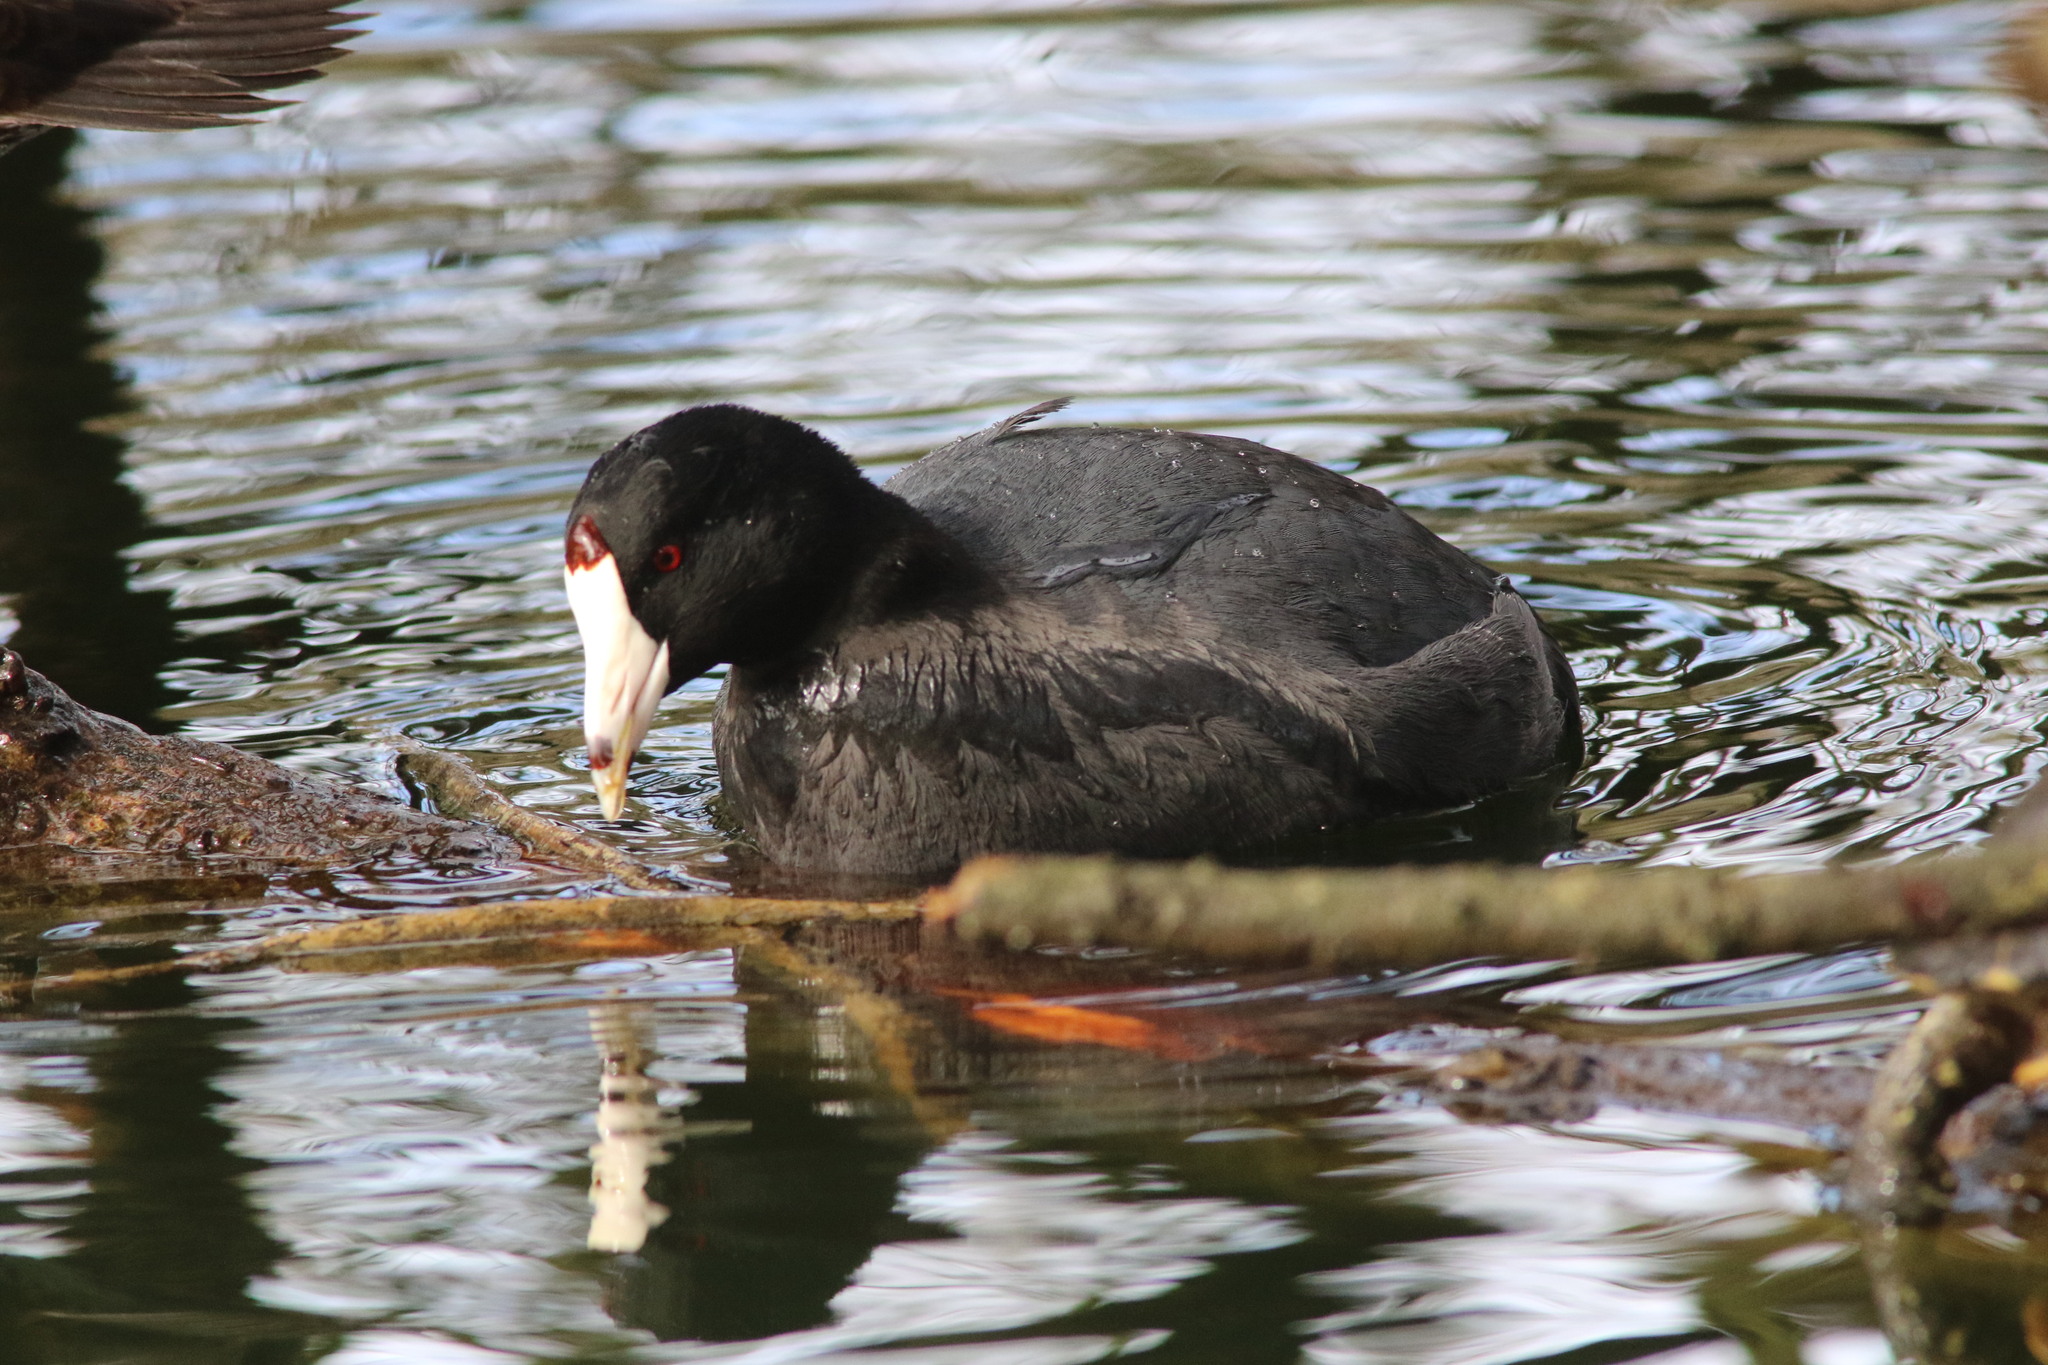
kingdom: Animalia
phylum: Chordata
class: Aves
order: Gruiformes
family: Rallidae
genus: Fulica
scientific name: Fulica americana
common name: American coot
